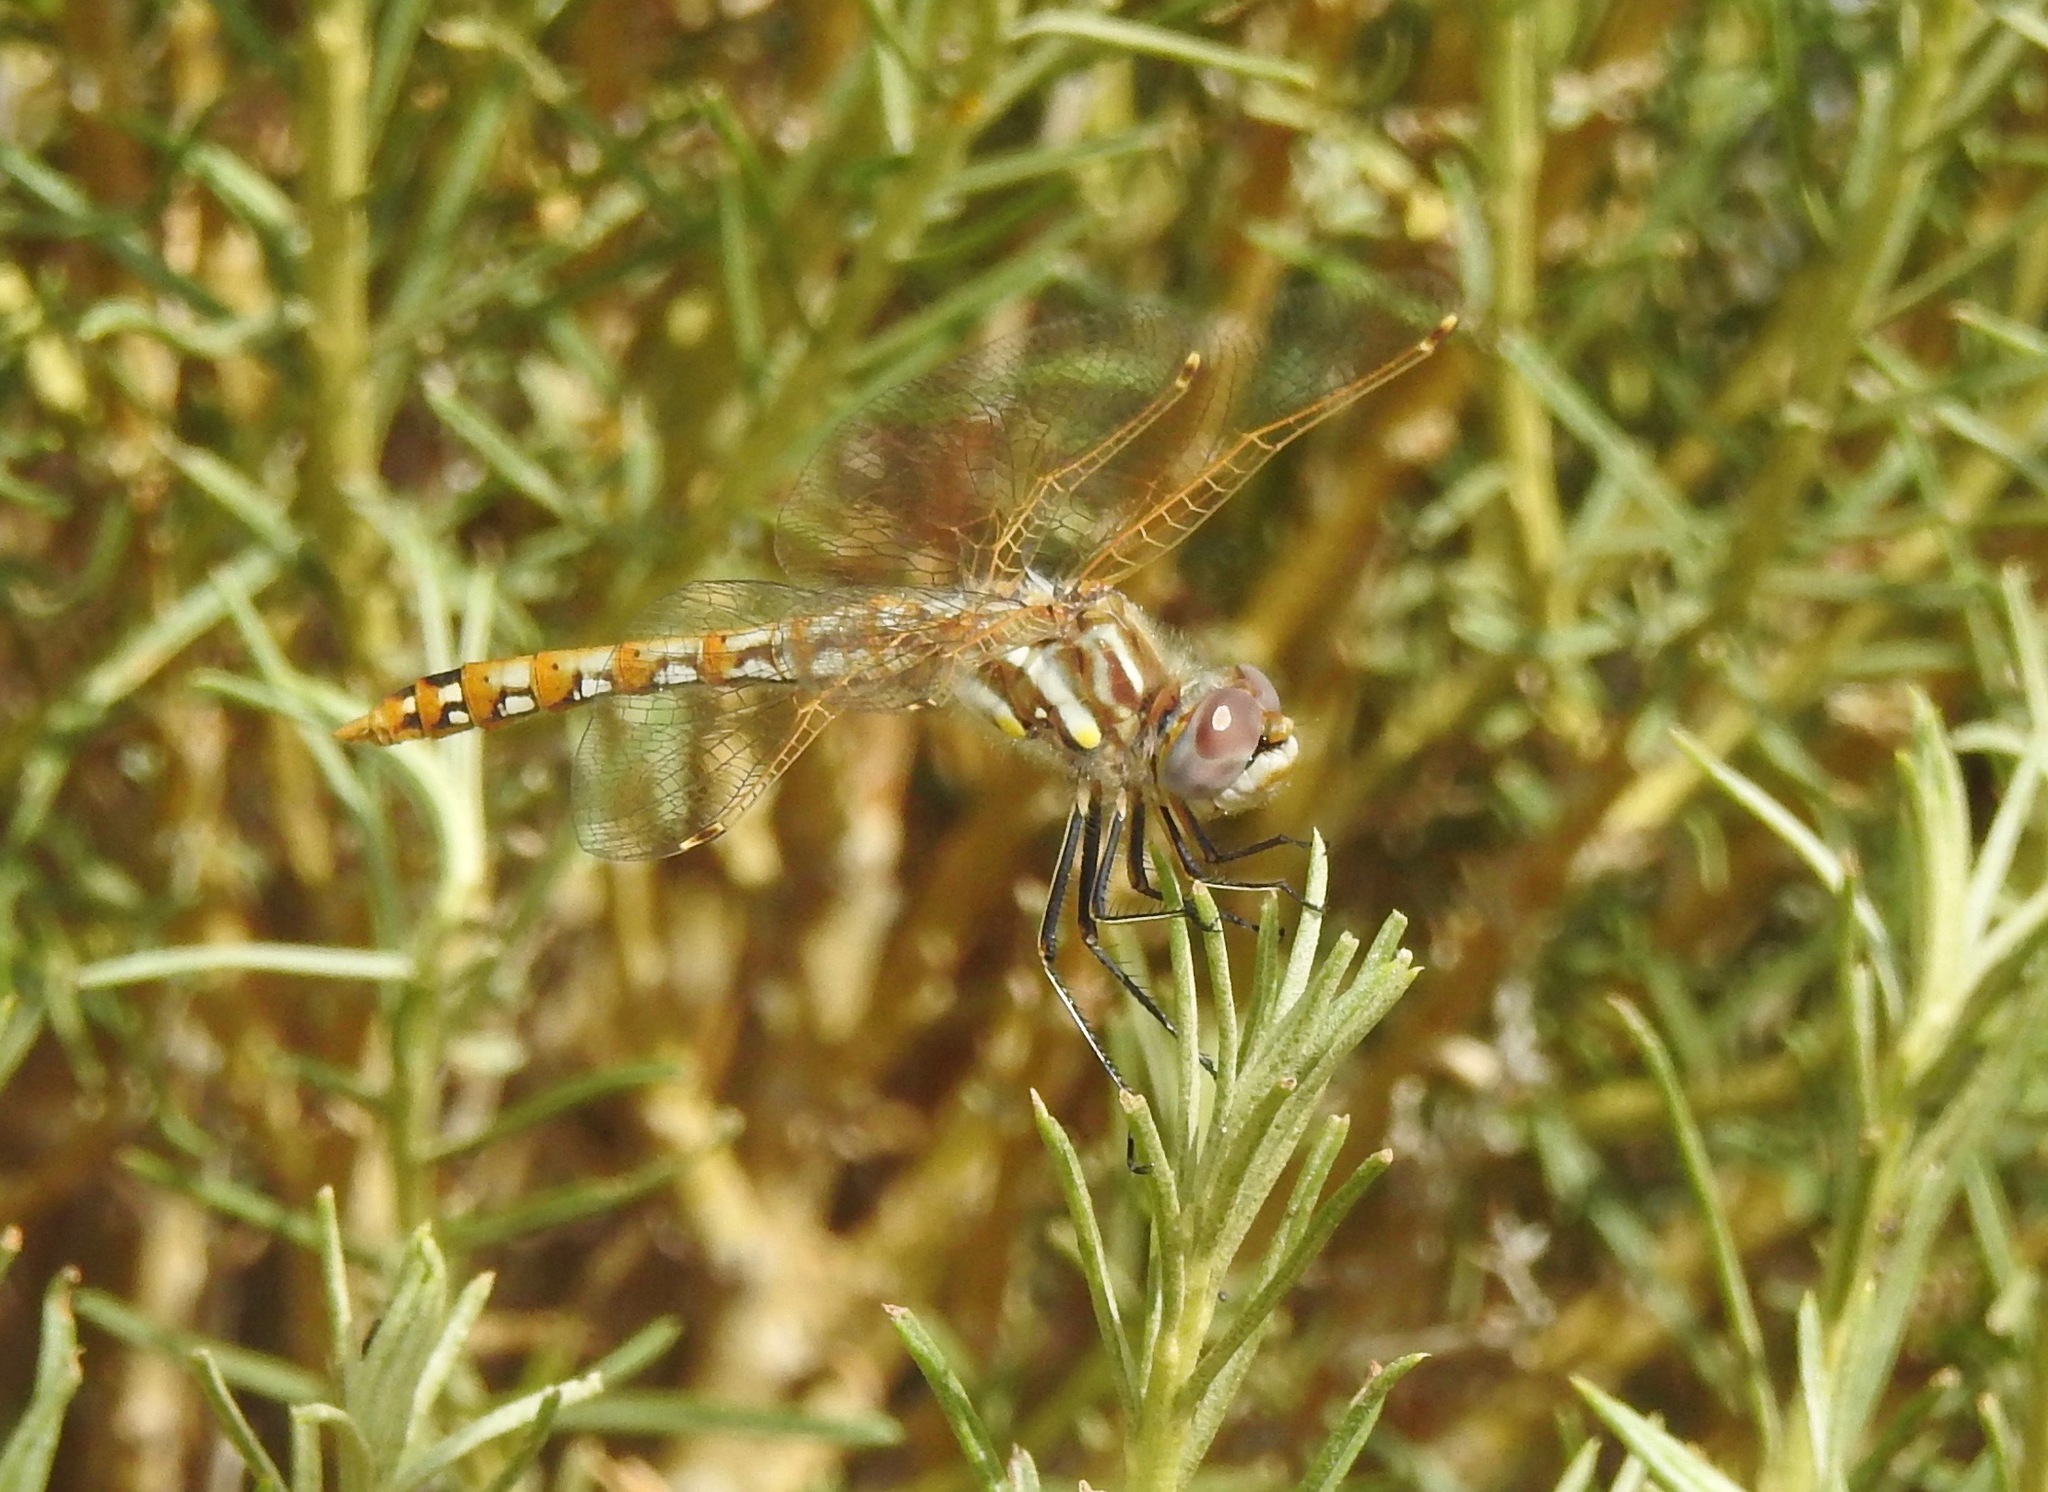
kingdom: Animalia
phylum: Arthropoda
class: Insecta
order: Odonata
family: Libellulidae
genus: Sympetrum
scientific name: Sympetrum corruptum
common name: Variegated meadowhawk
